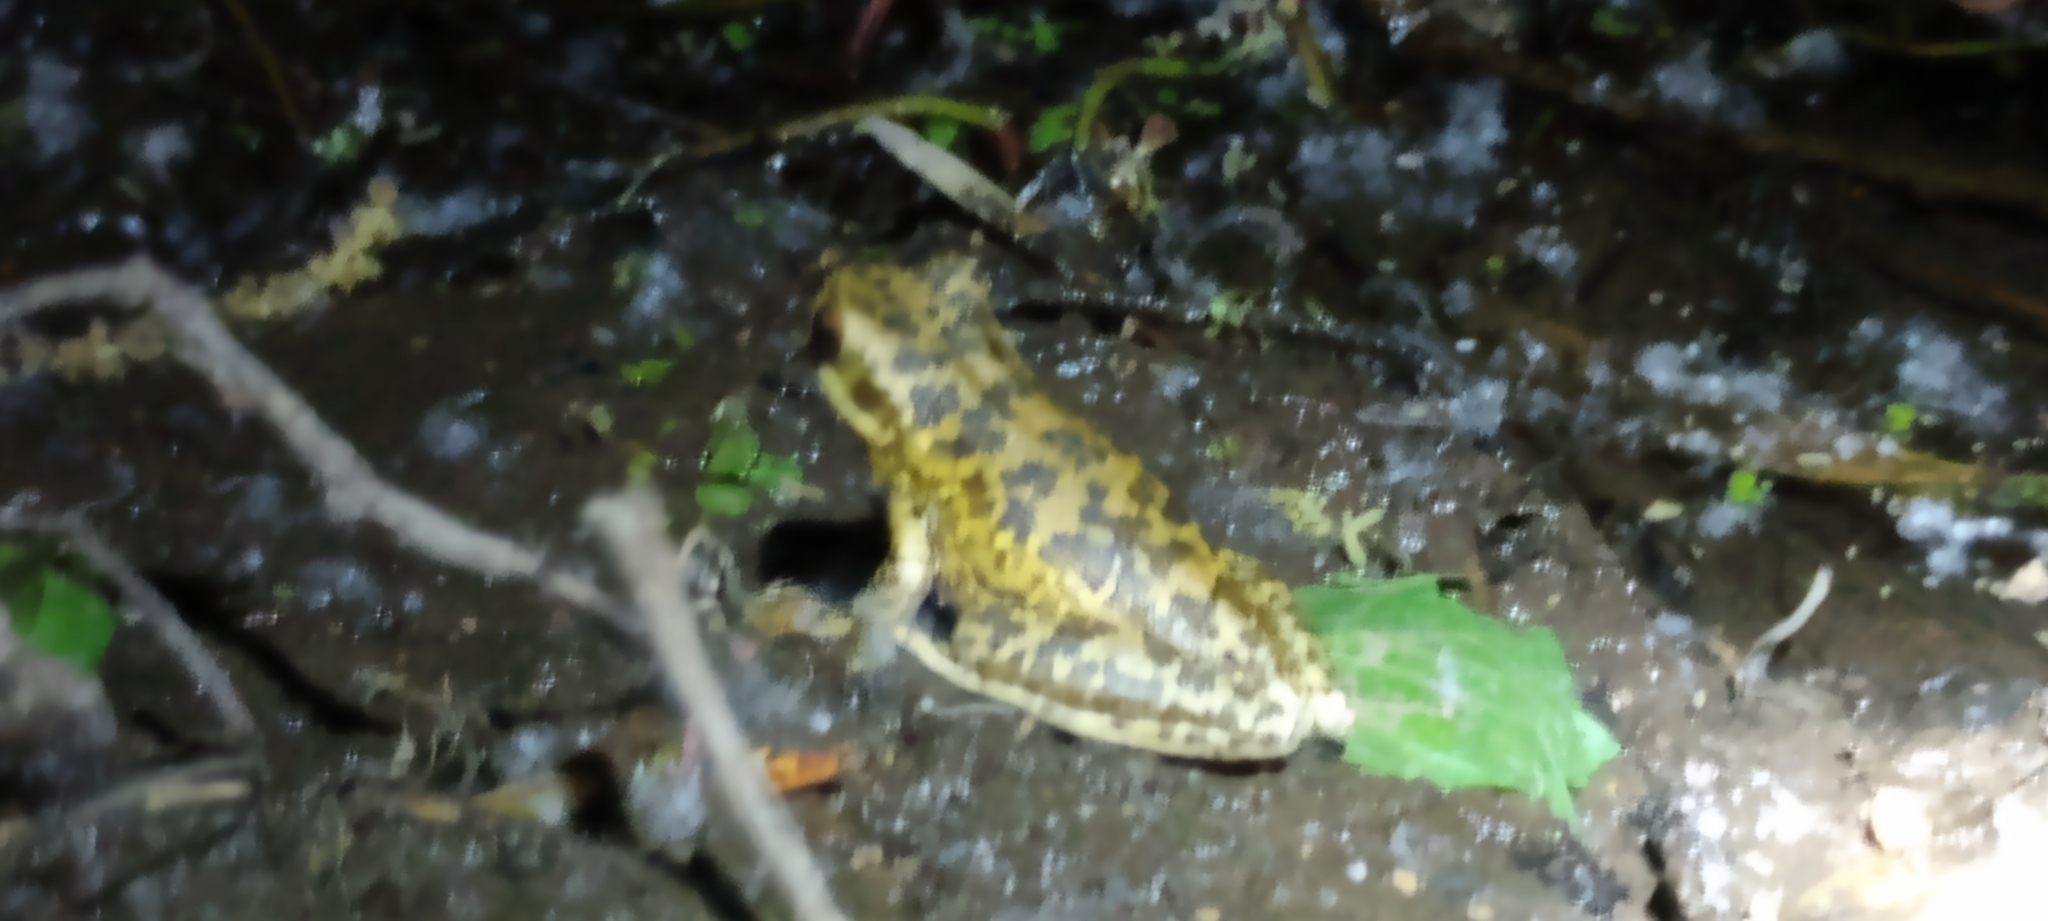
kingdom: Animalia
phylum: Chordata
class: Amphibia
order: Anura
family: Hylidae
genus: Boana
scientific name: Boana pulchella
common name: Montevideo treefrog
